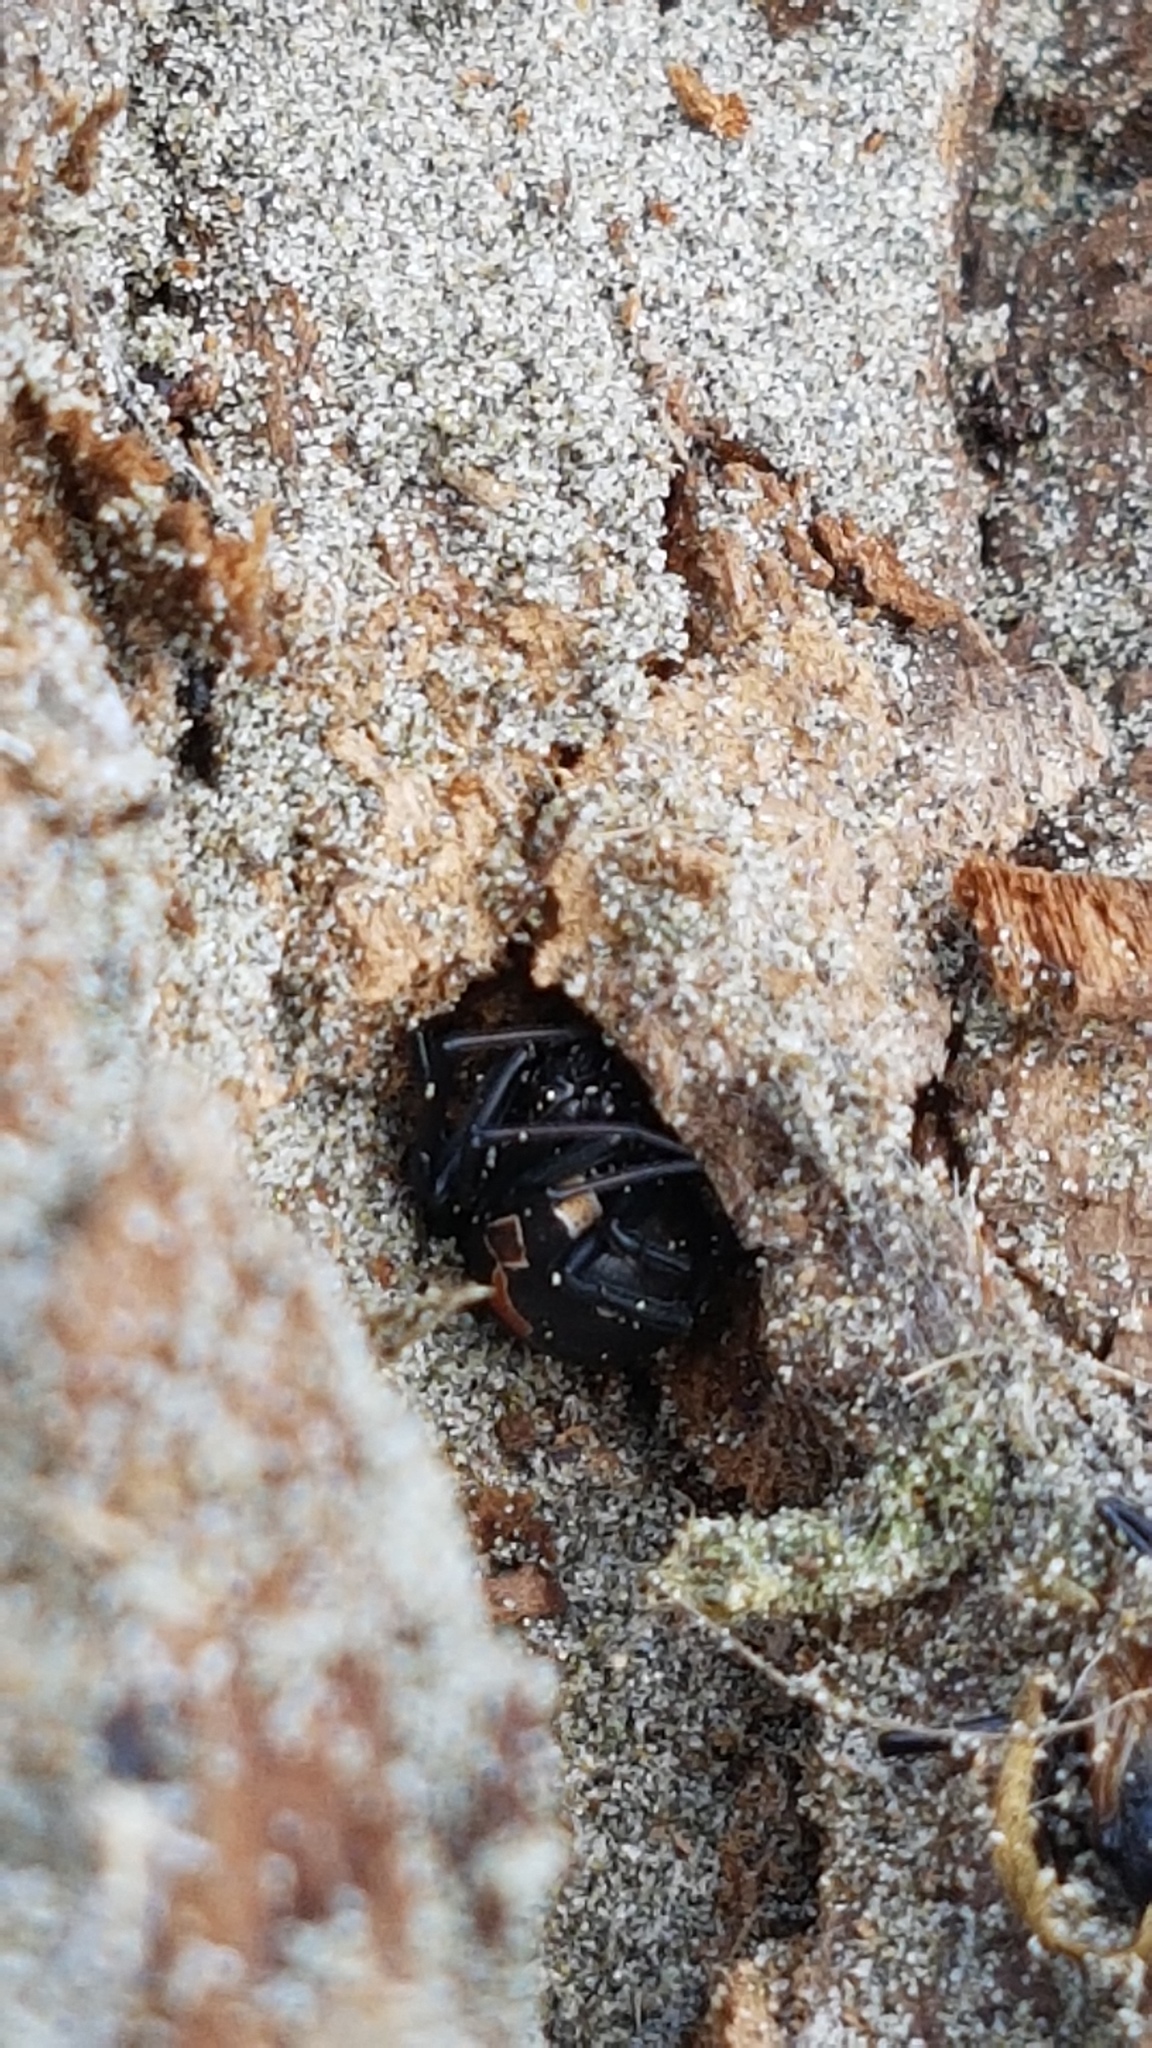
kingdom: Animalia
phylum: Arthropoda
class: Arachnida
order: Araneae
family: Theridiidae
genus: Latrodectus
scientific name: Latrodectus katipo
